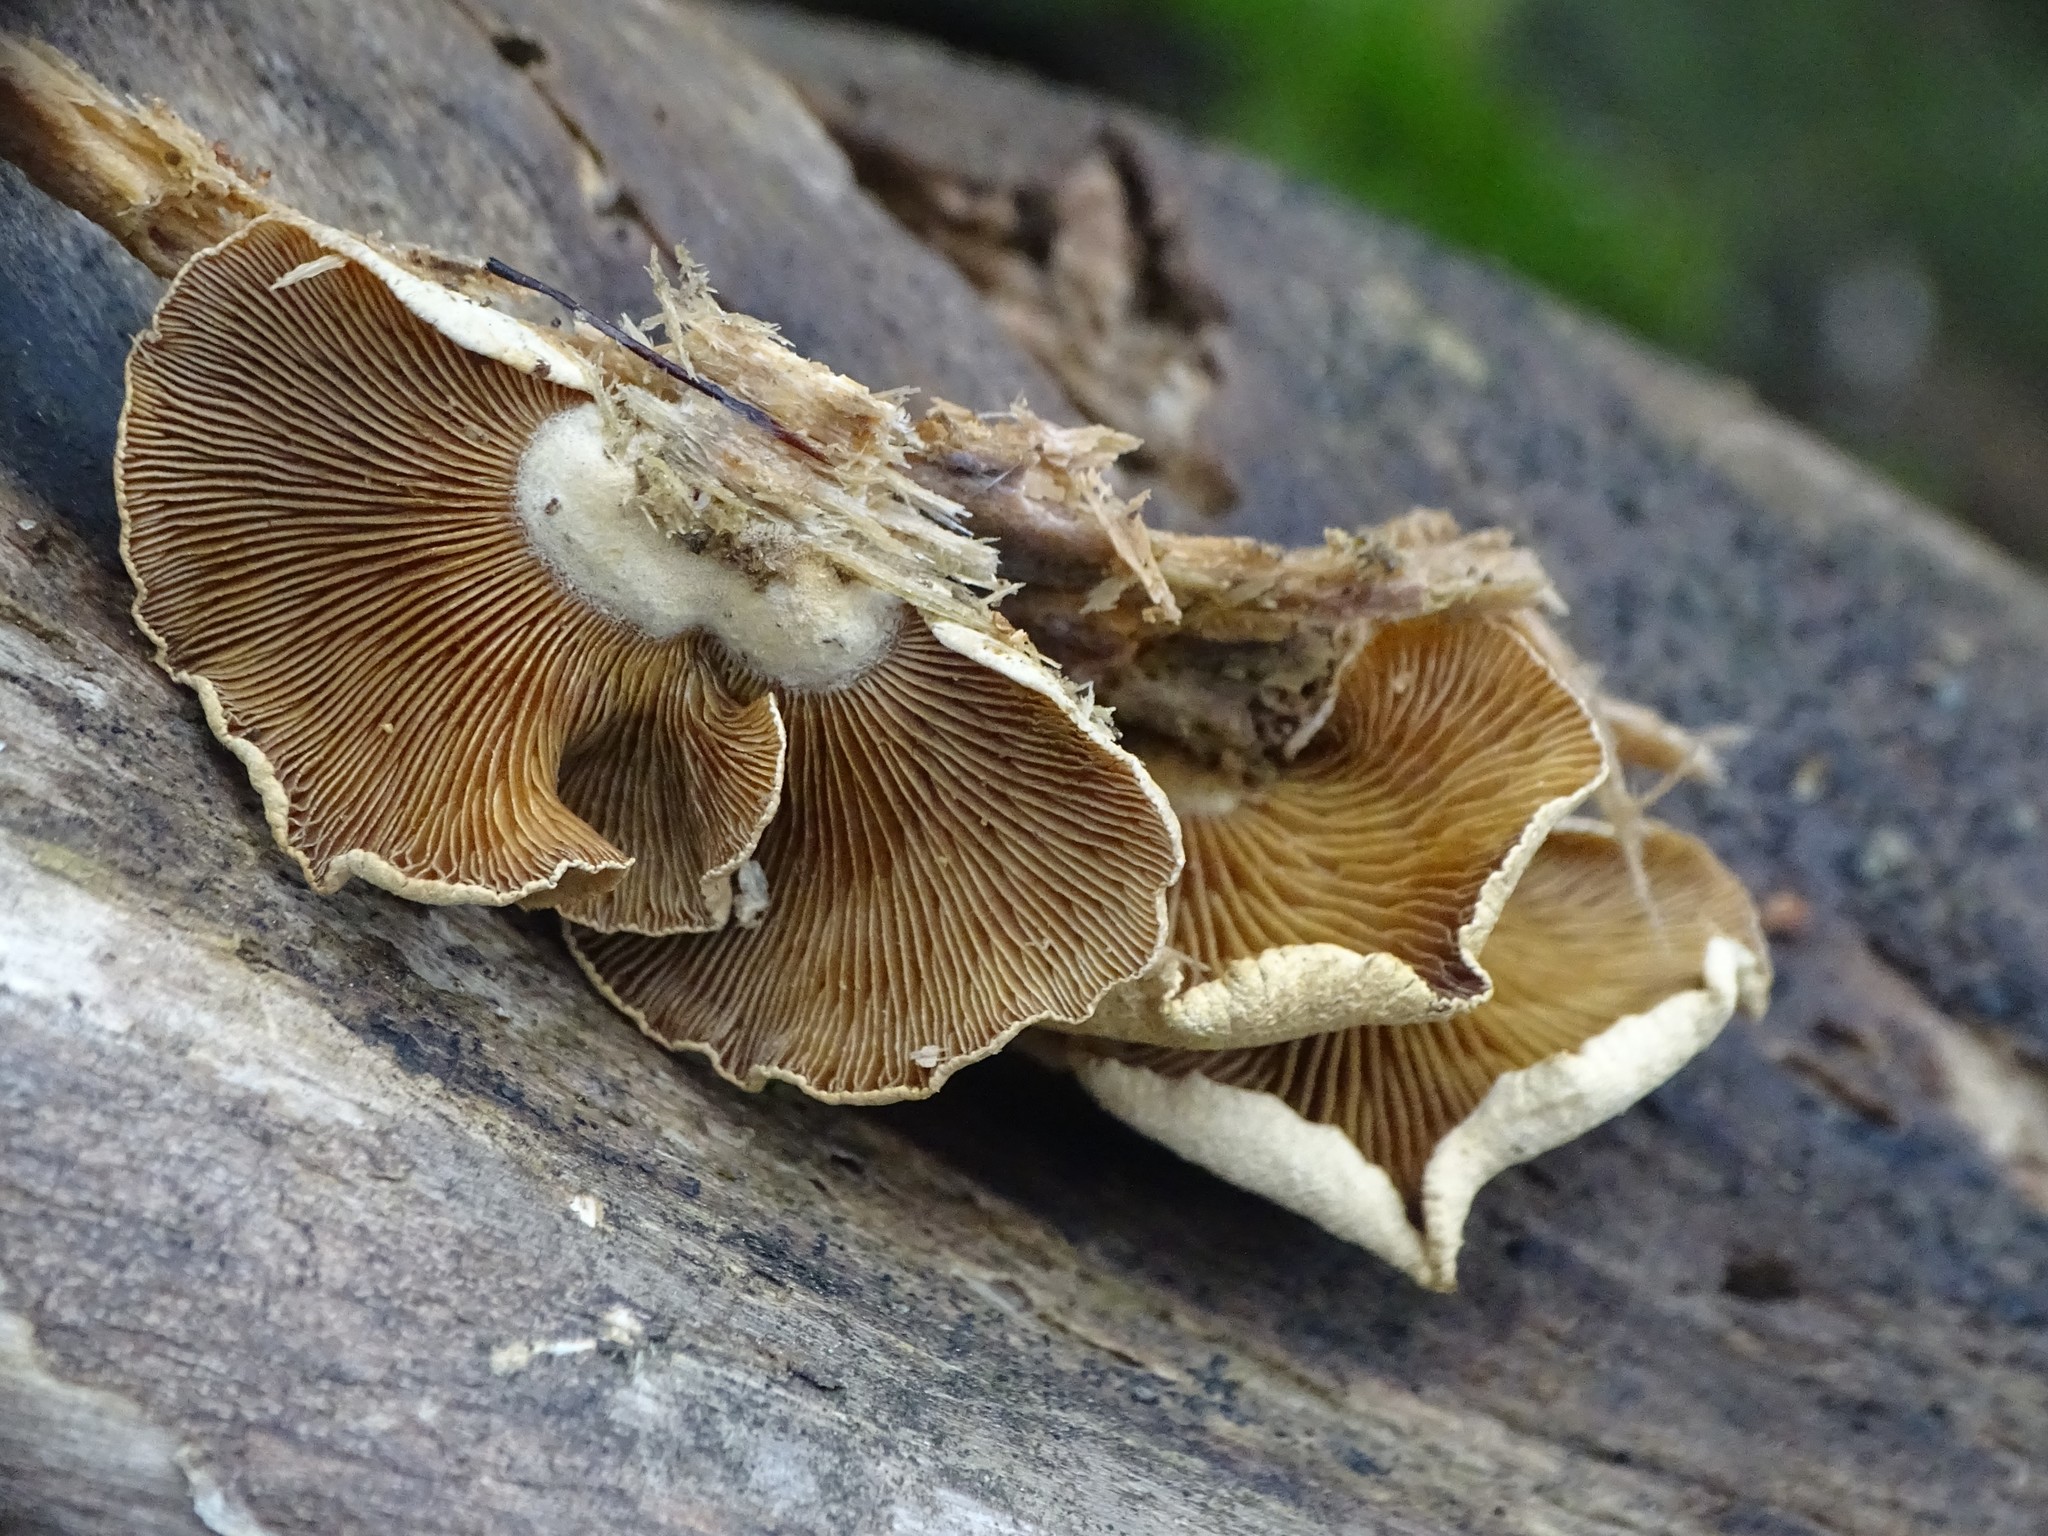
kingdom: Fungi
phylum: Basidiomycota
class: Agaricomycetes
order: Agaricales
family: Mycenaceae
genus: Panellus
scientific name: Panellus stipticus
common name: Bitter oysterling
